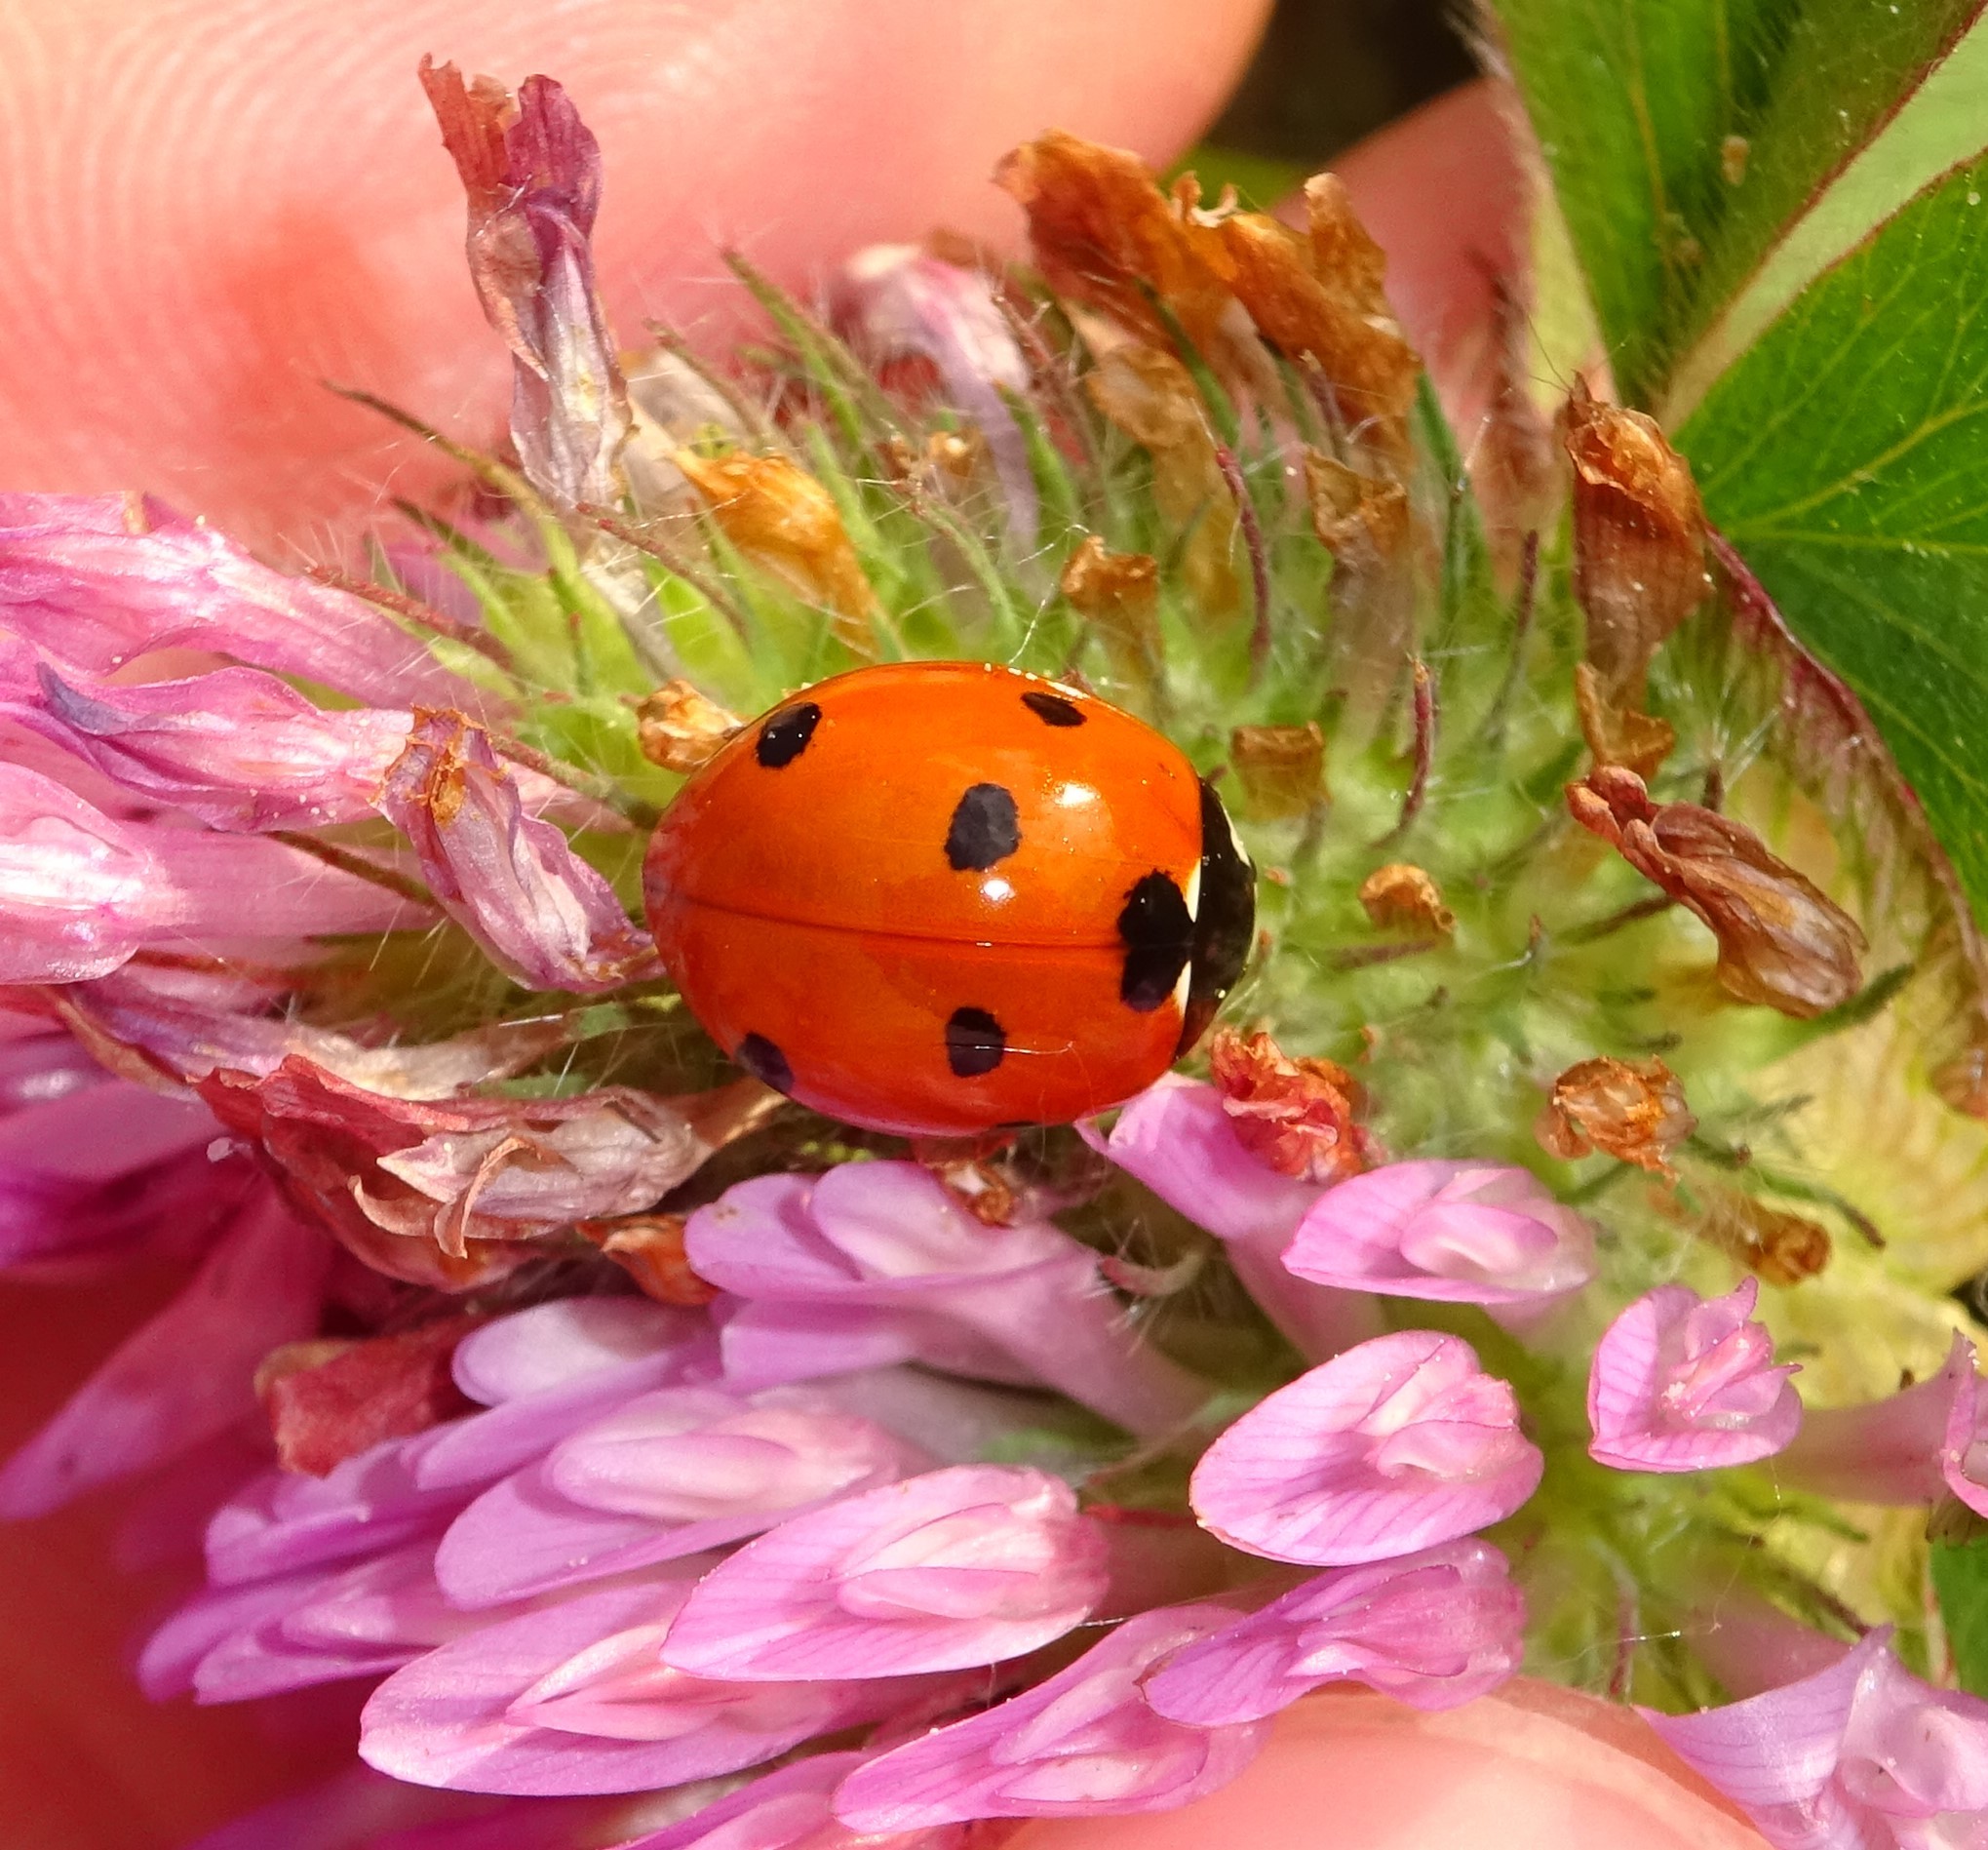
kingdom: Animalia
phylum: Arthropoda
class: Insecta
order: Coleoptera
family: Coccinellidae
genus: Coccinella
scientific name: Coccinella septempunctata
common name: Sevenspotted lady beetle
